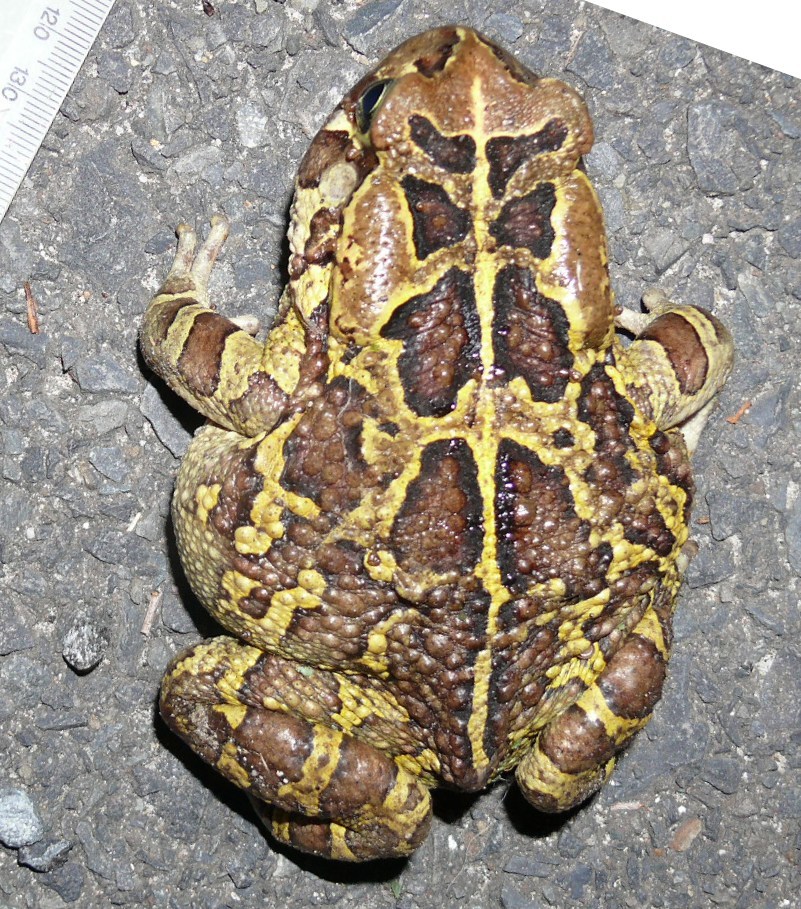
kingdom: Animalia
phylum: Chordata
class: Amphibia
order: Anura
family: Bufonidae
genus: Sclerophrys
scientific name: Sclerophrys pantherina
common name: Panther toad
